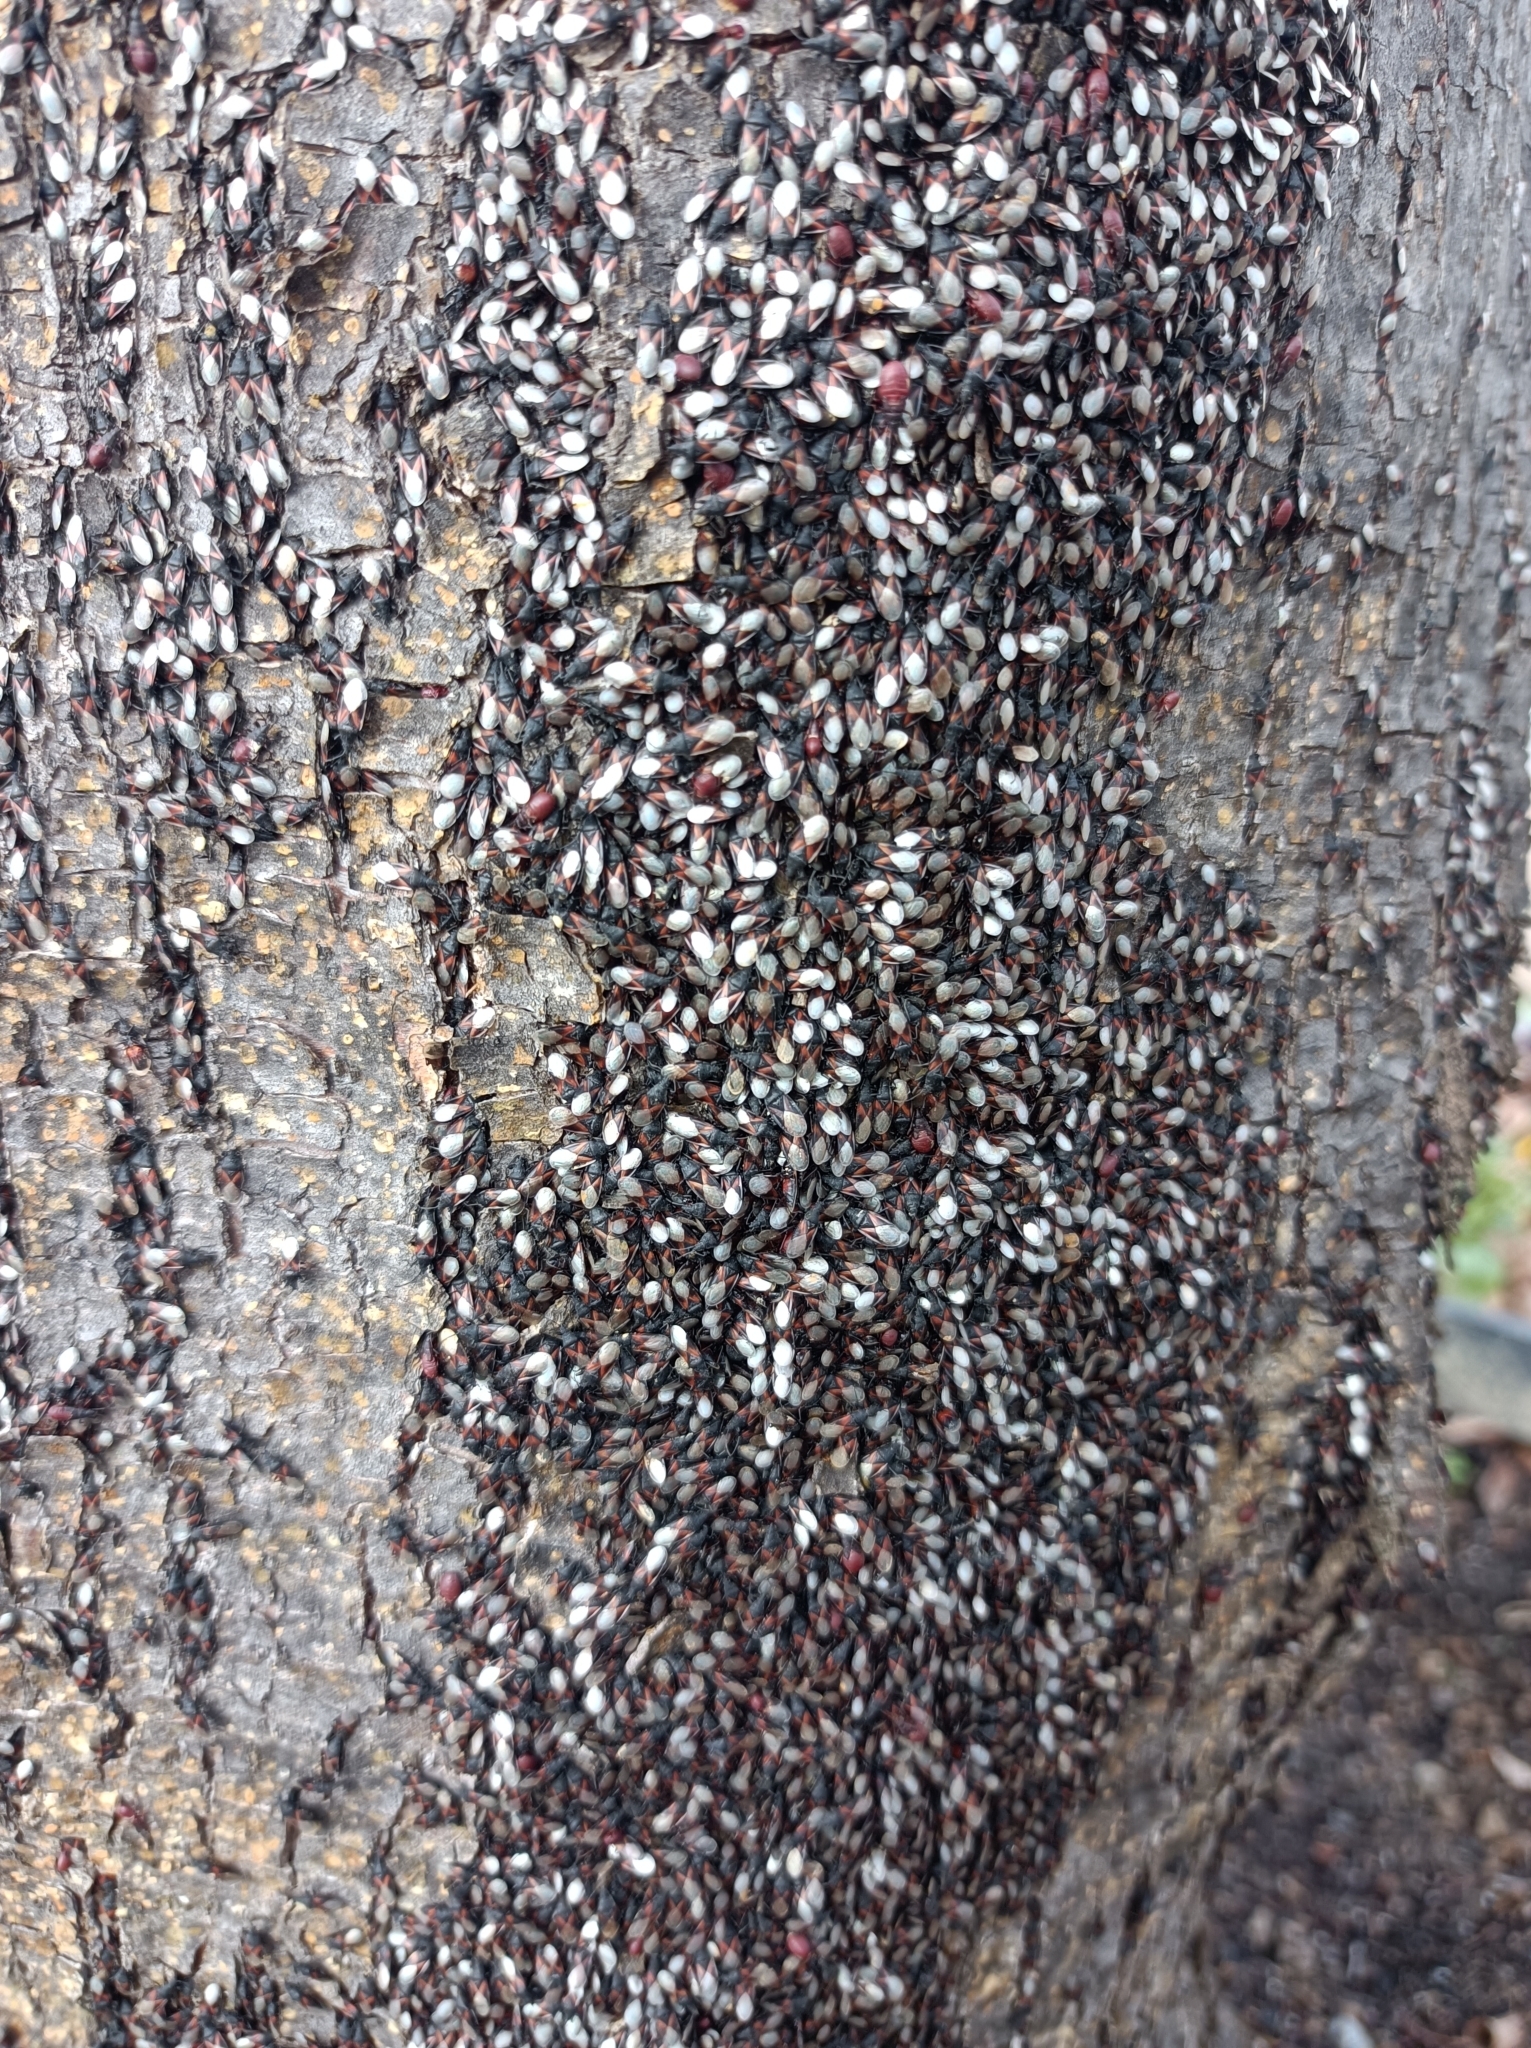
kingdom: Animalia
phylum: Arthropoda
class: Insecta
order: Hemiptera
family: Oxycarenidae
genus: Oxycarenus
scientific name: Oxycarenus lavaterae
